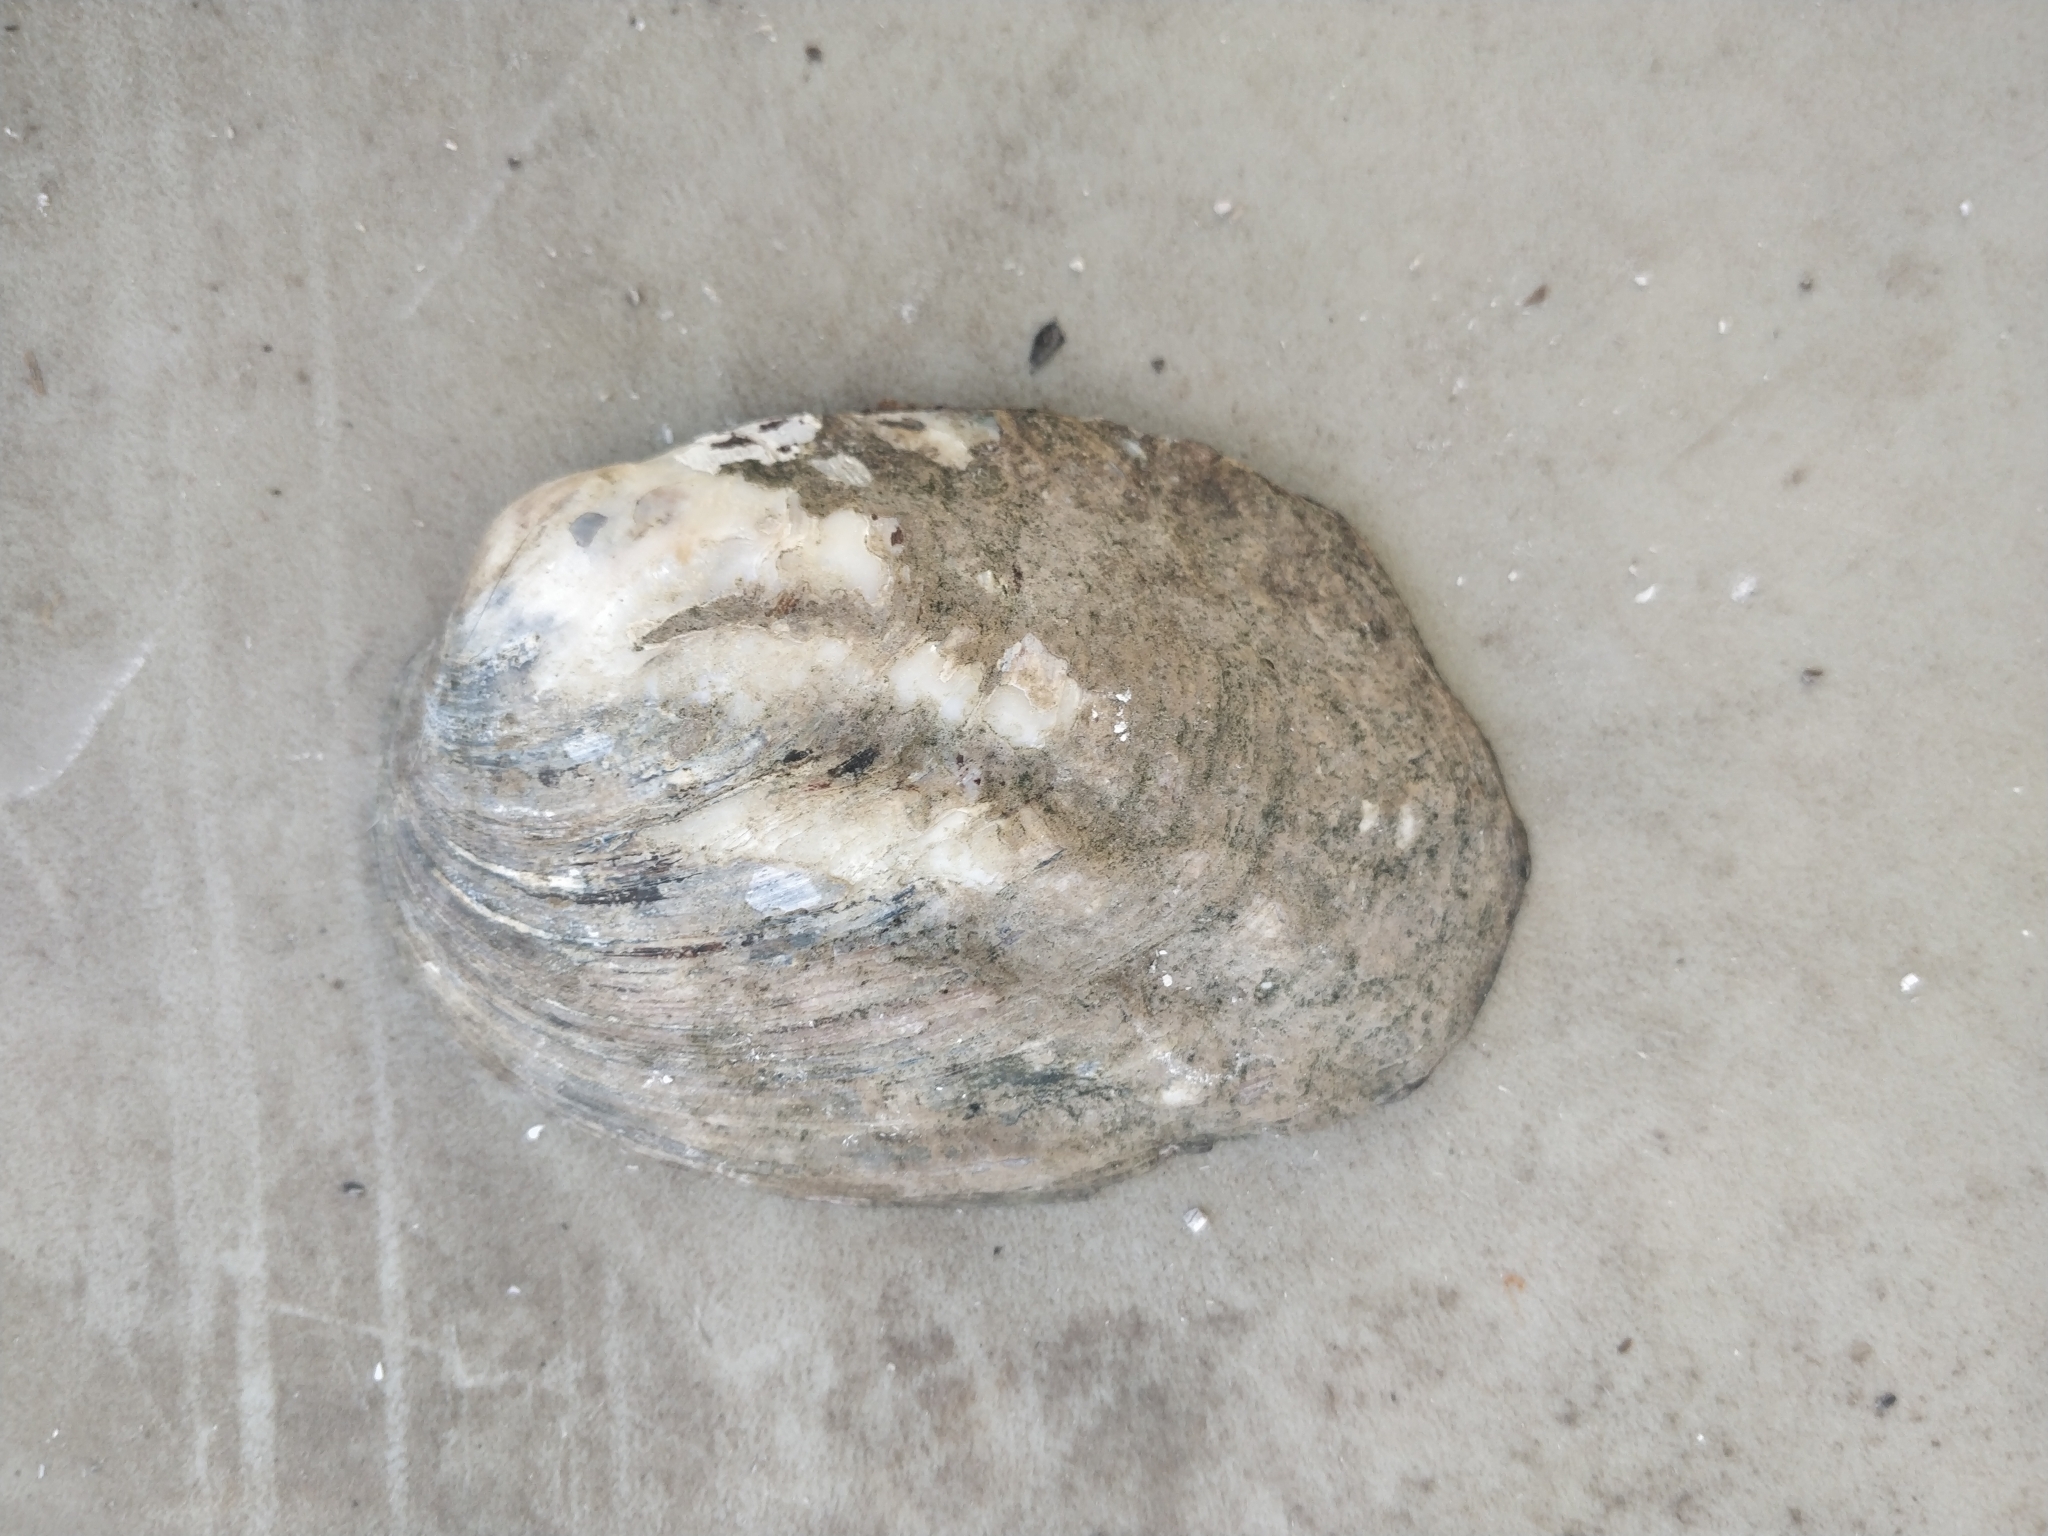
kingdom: Animalia
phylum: Mollusca
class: Bivalvia
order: Unionida
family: Unionidae
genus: Amblema
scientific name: Amblema plicata
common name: Threeridge
